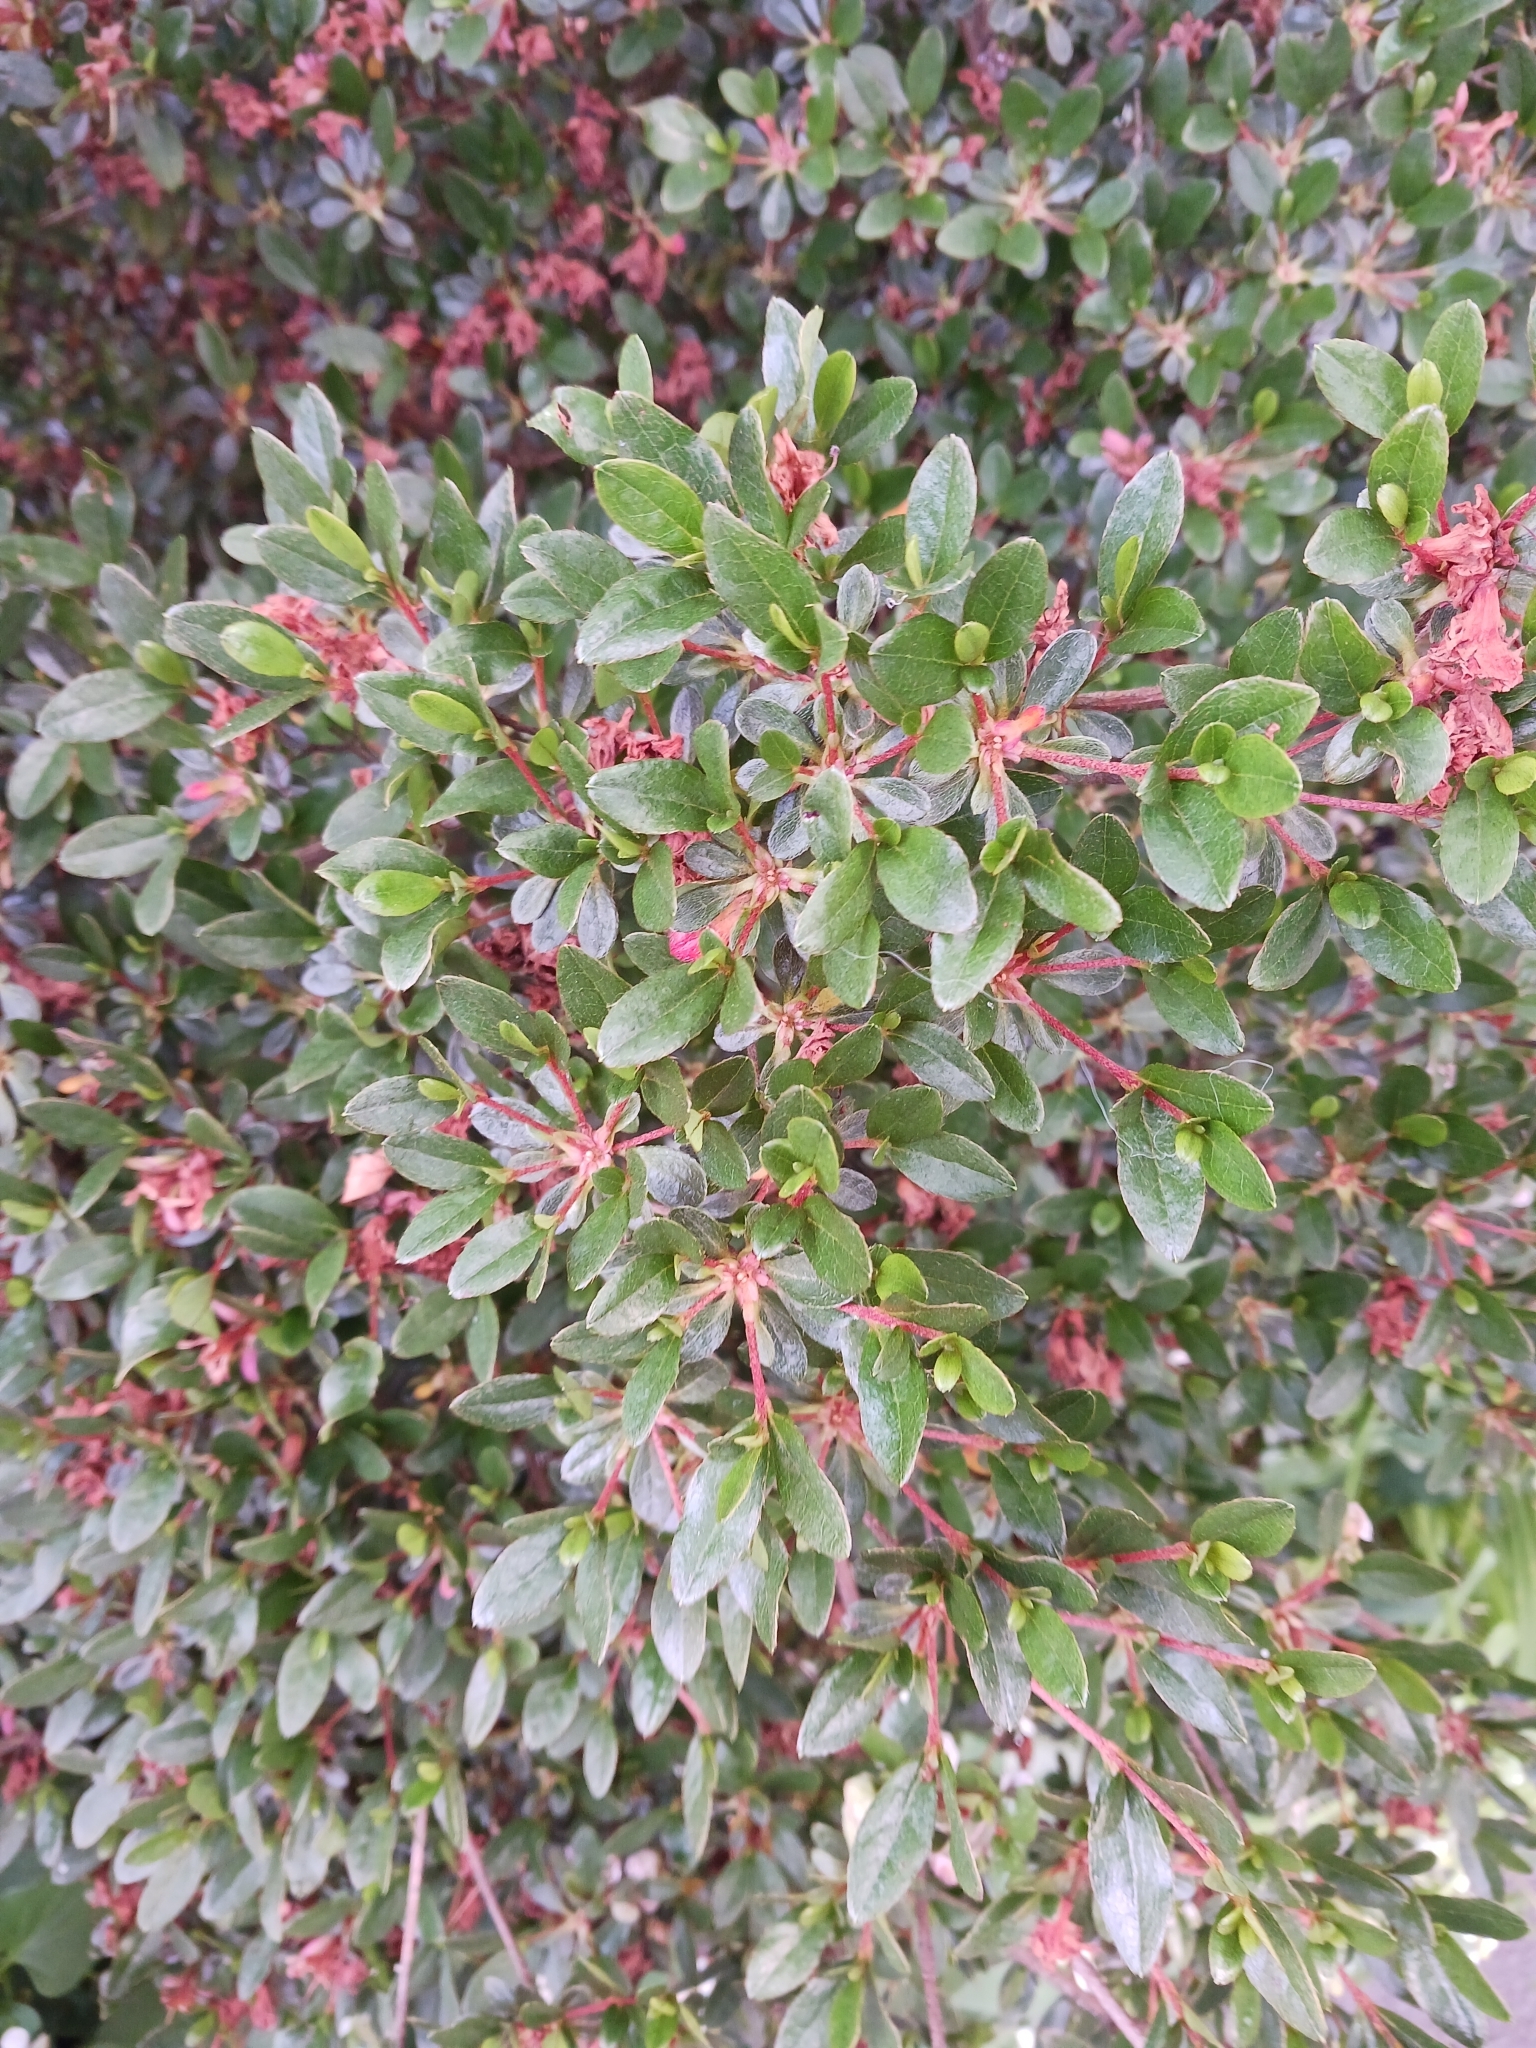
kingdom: Fungi
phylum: Basidiomycota
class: Exobasidiomycetes
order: Exobasidiales
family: Exobasidiaceae
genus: Exobasidium
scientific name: Exobasidium japonicum
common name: Azalea gall
